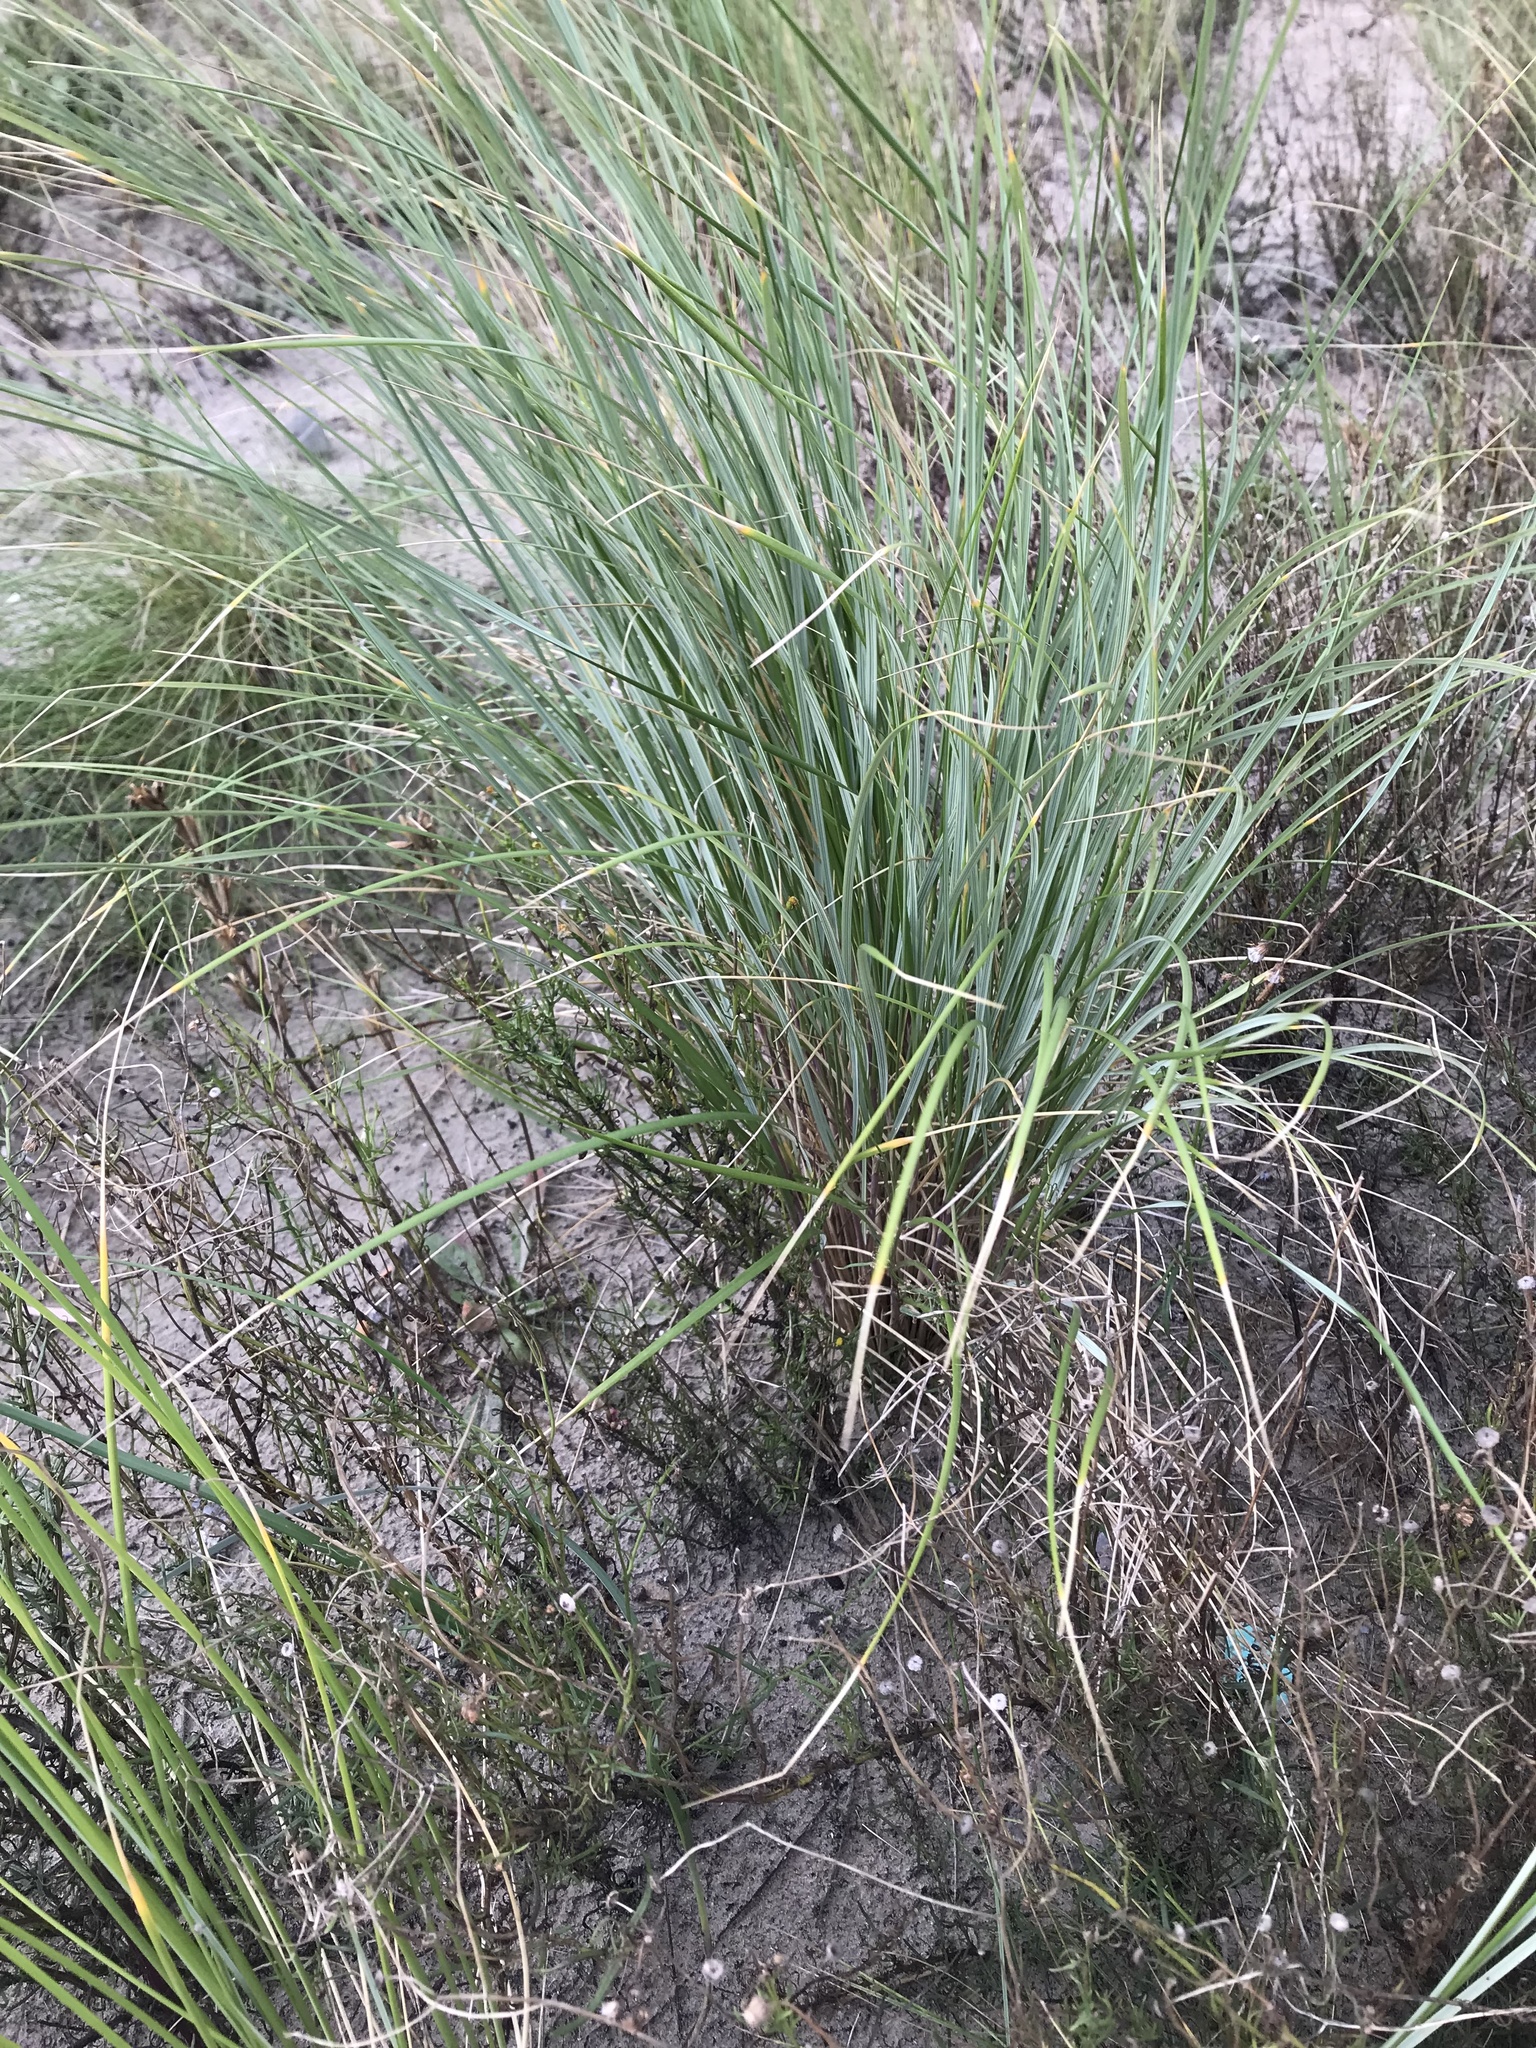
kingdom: Plantae
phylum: Tracheophyta
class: Liliopsida
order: Poales
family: Poaceae
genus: Calamagrostis
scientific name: Calamagrostis arenaria
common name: European beachgrass
